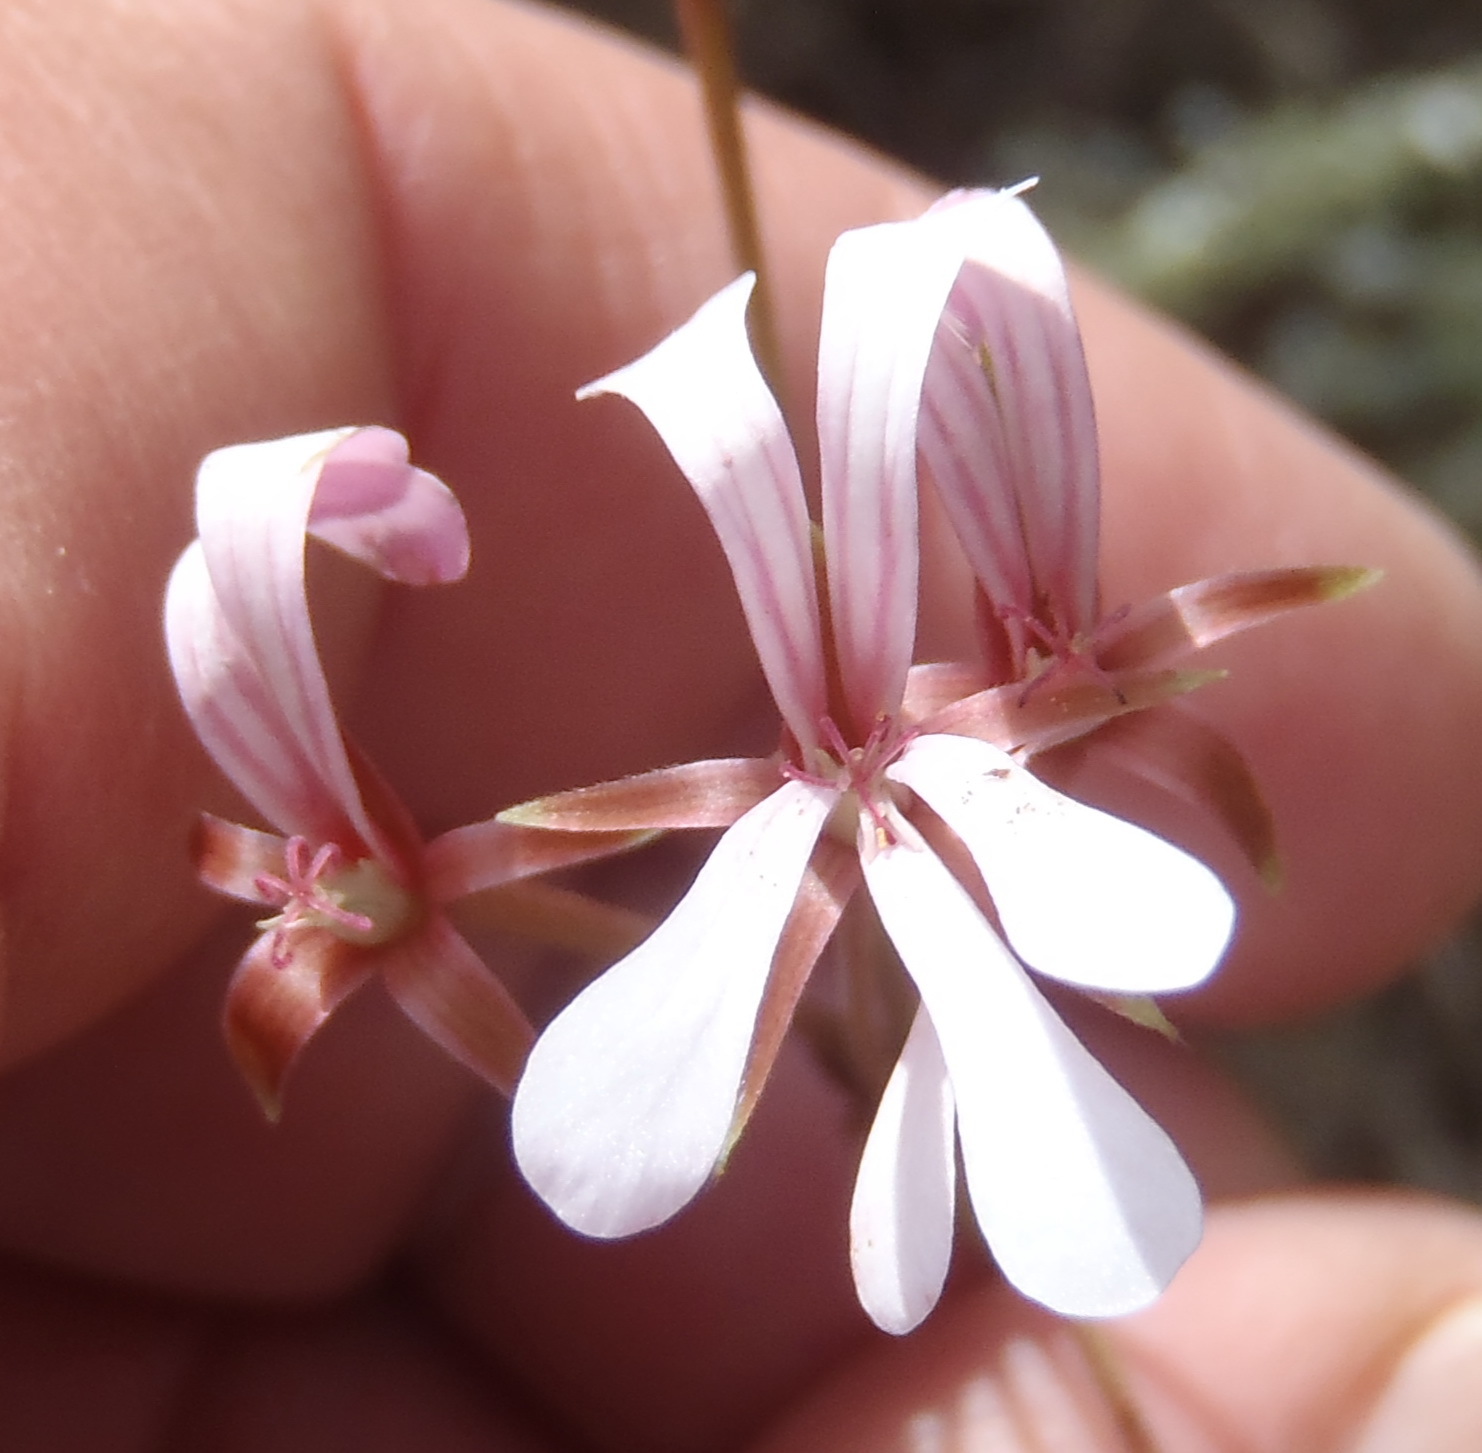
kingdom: Plantae
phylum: Tracheophyta
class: Magnoliopsida
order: Geraniales
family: Geraniaceae
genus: Pelargonium
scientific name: Pelargonium alchemilloides
